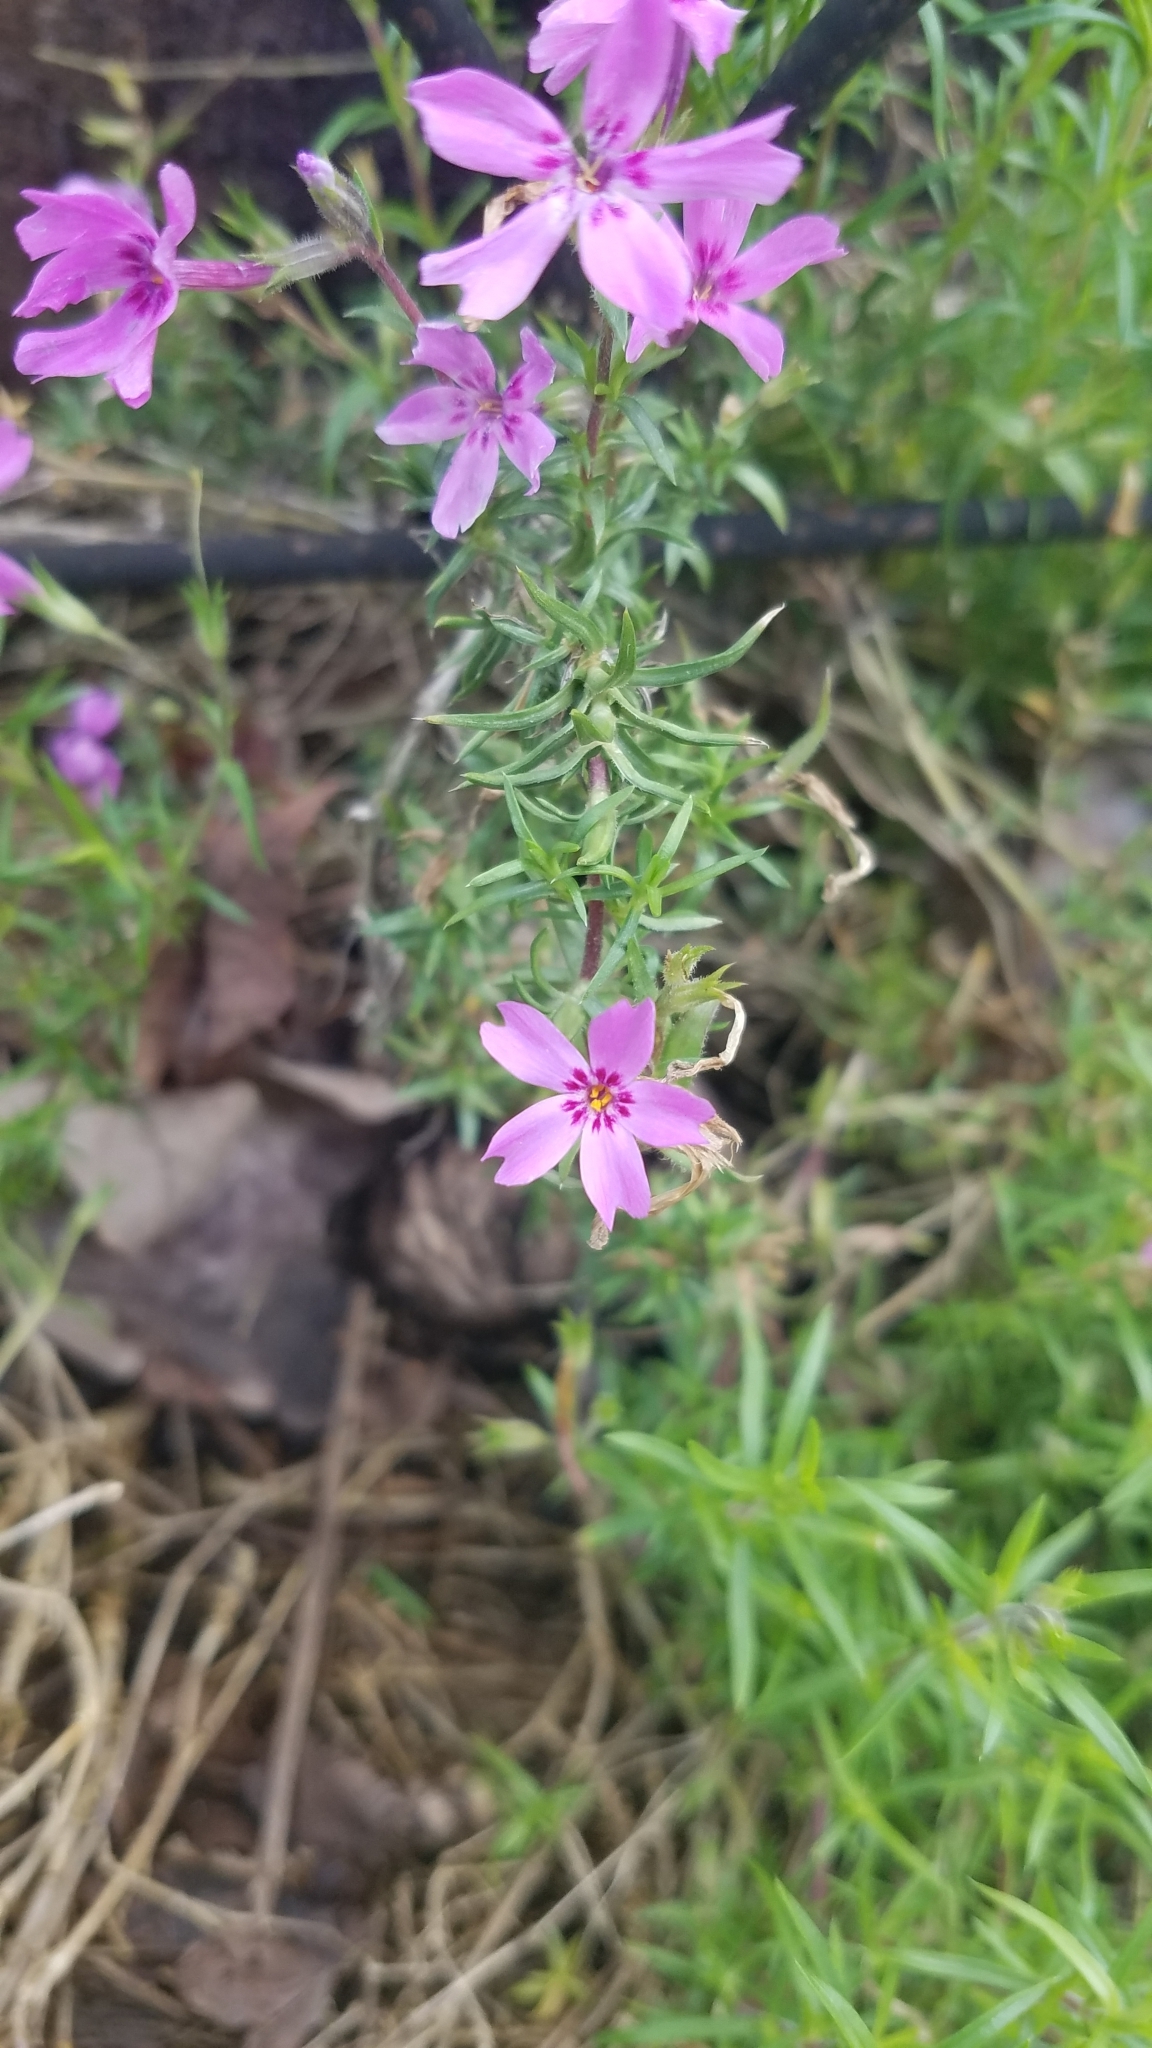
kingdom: Plantae
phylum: Tracheophyta
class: Magnoliopsida
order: Ericales
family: Polemoniaceae
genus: Phlox
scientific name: Phlox subulata
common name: Moss phlox
